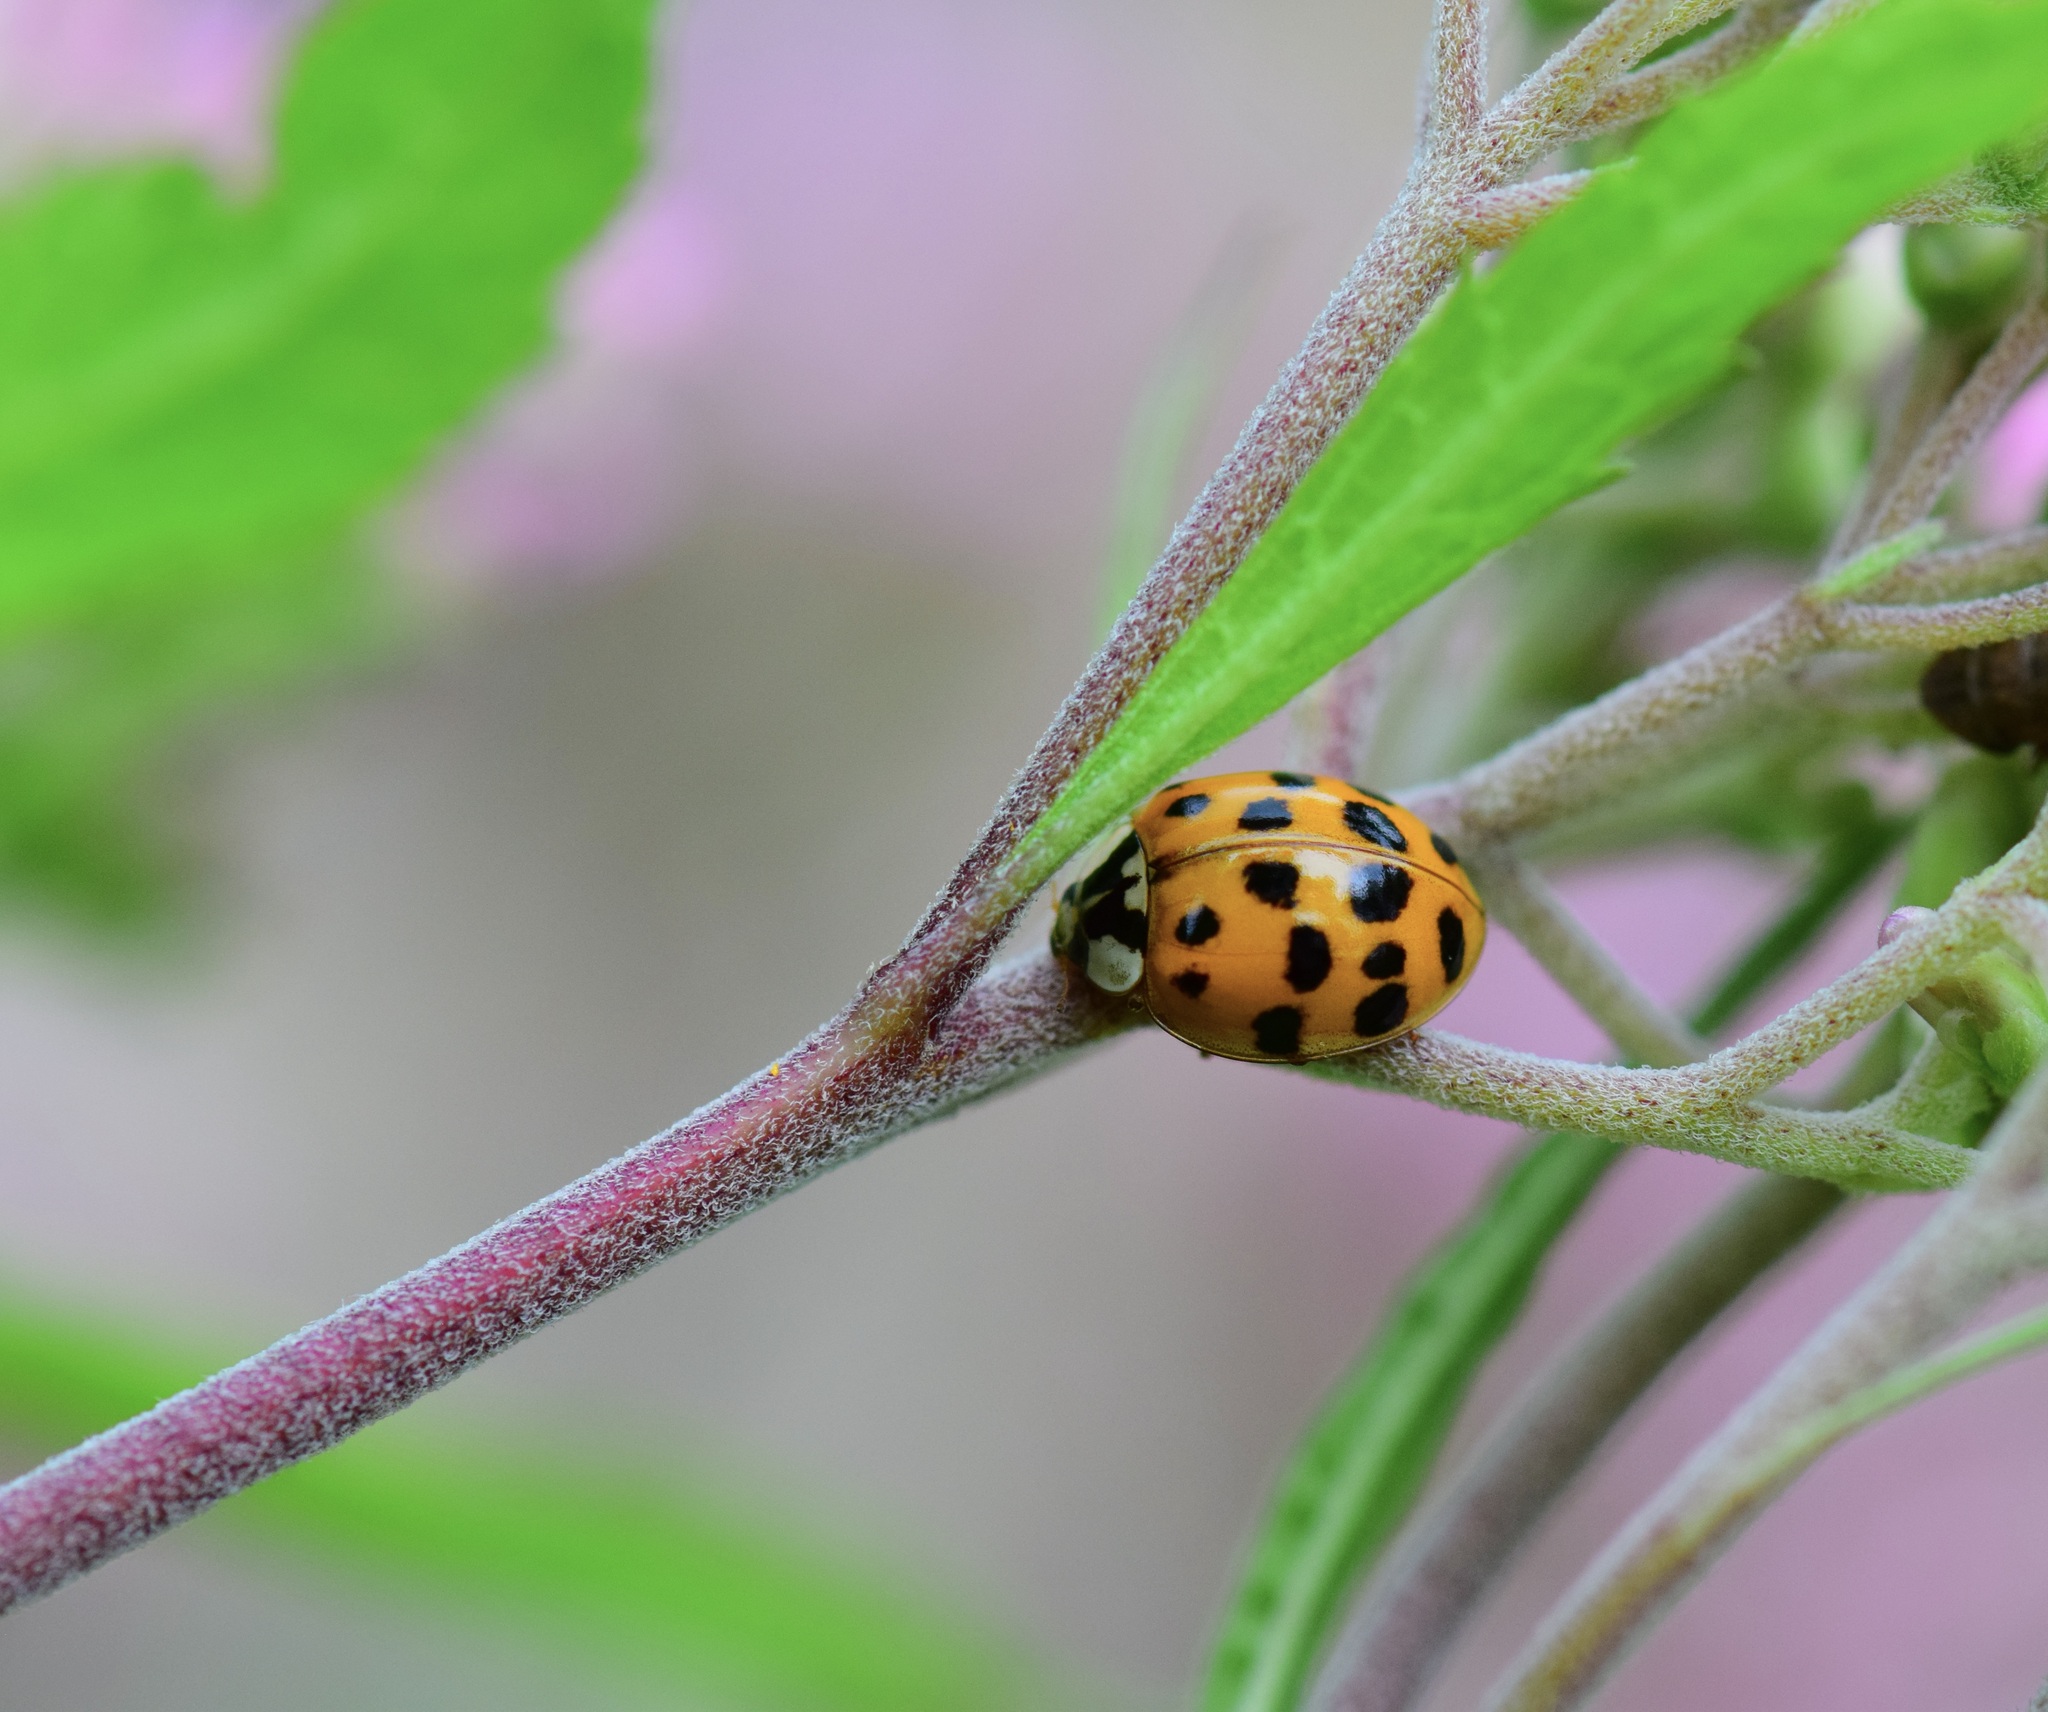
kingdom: Animalia
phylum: Arthropoda
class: Insecta
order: Coleoptera
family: Coccinellidae
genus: Harmonia
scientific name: Harmonia axyridis
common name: Harlequin ladybird
